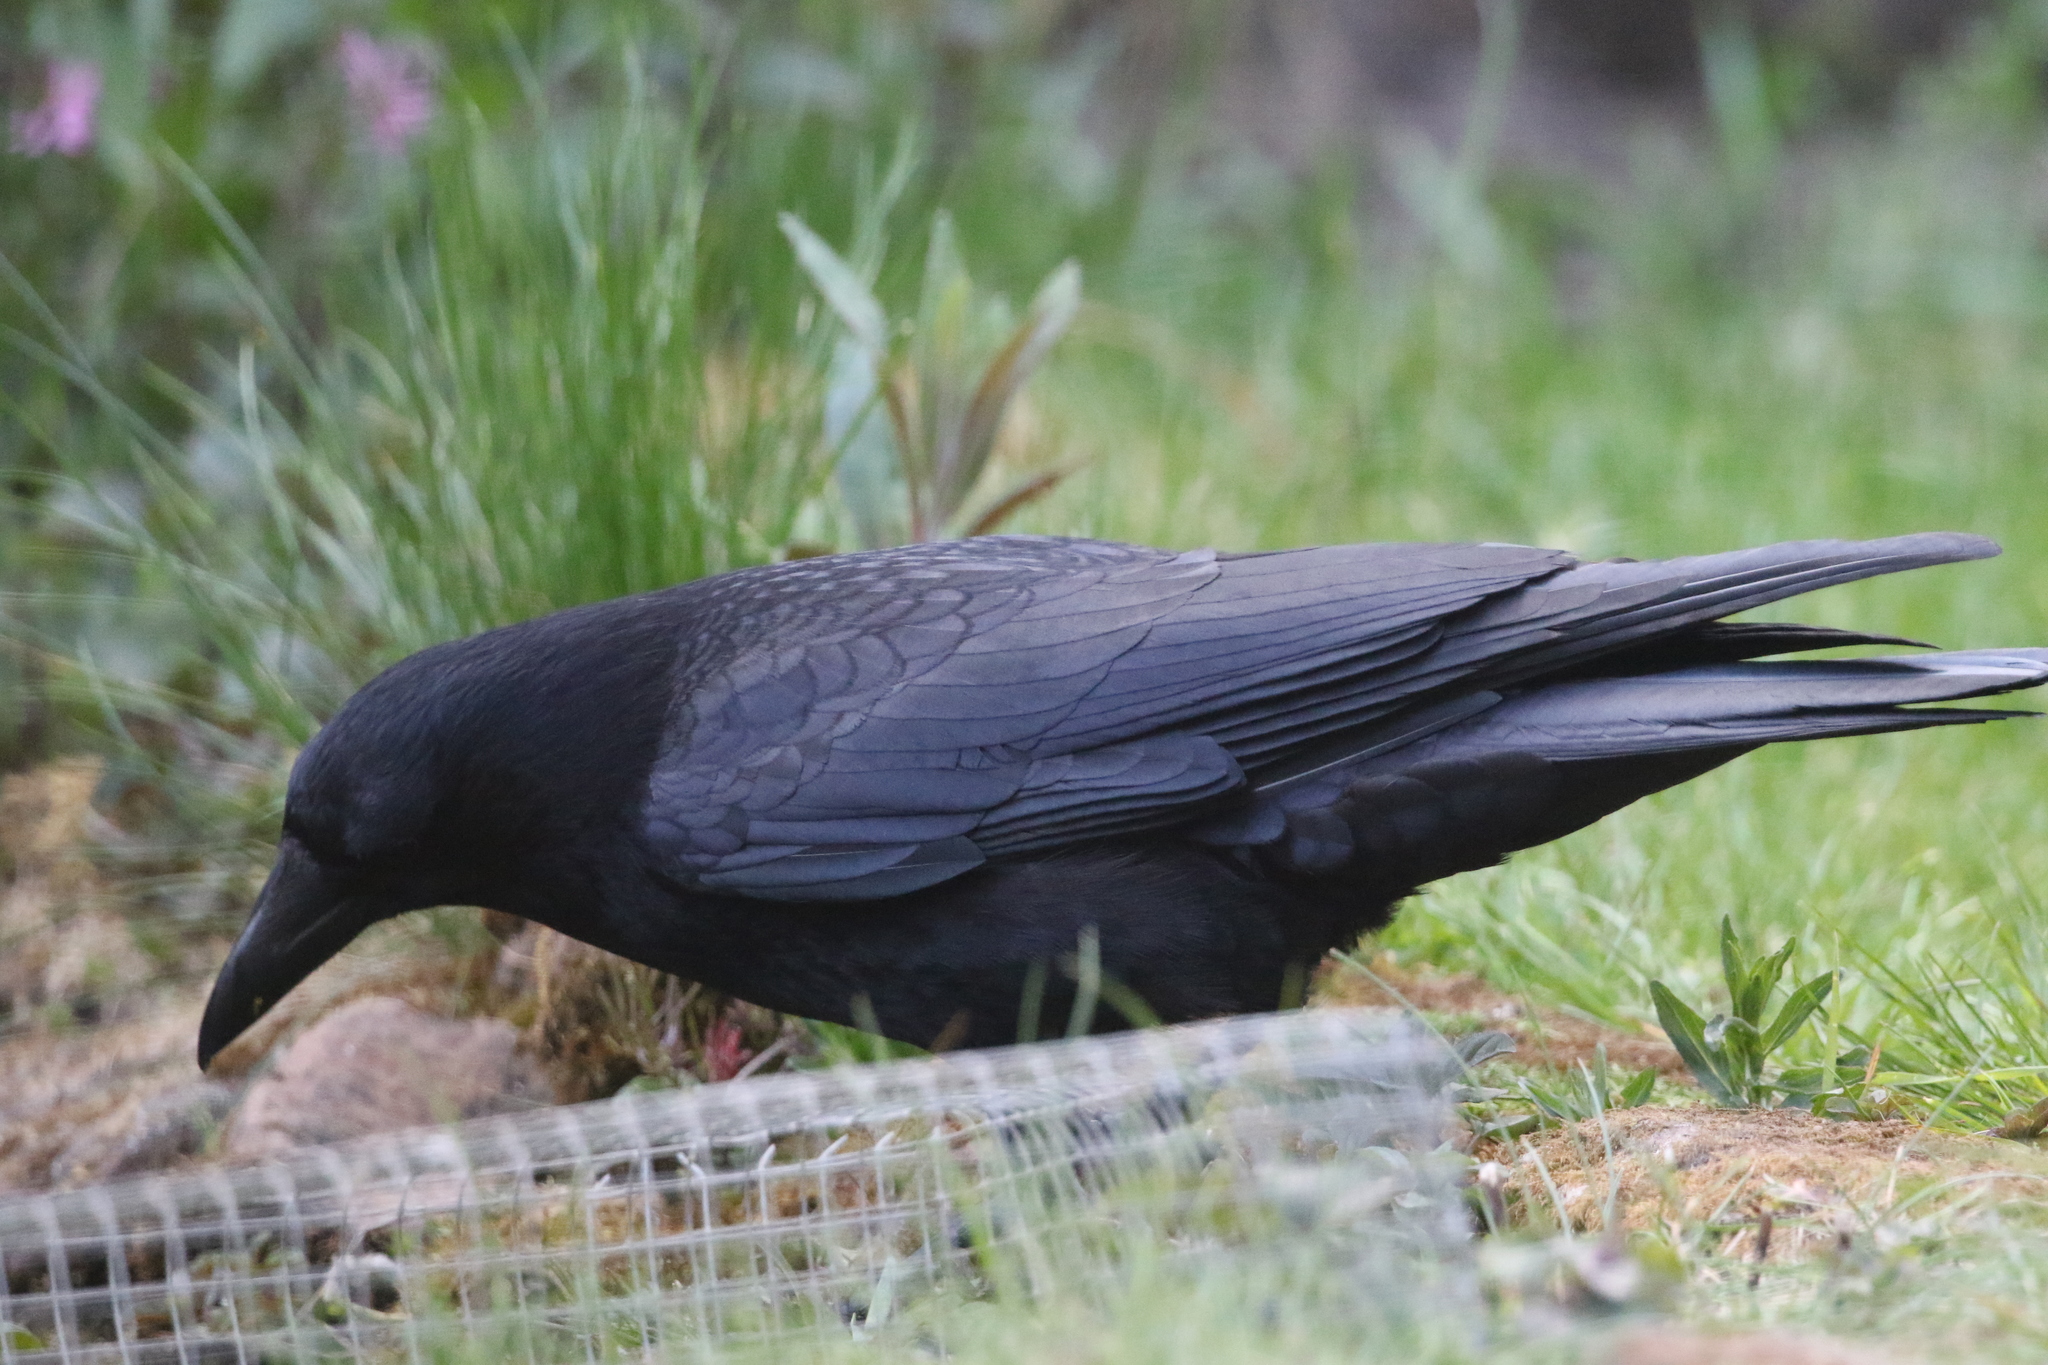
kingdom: Animalia
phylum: Chordata
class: Aves
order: Passeriformes
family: Corvidae
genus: Corvus
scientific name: Corvus corone
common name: Carrion crow
